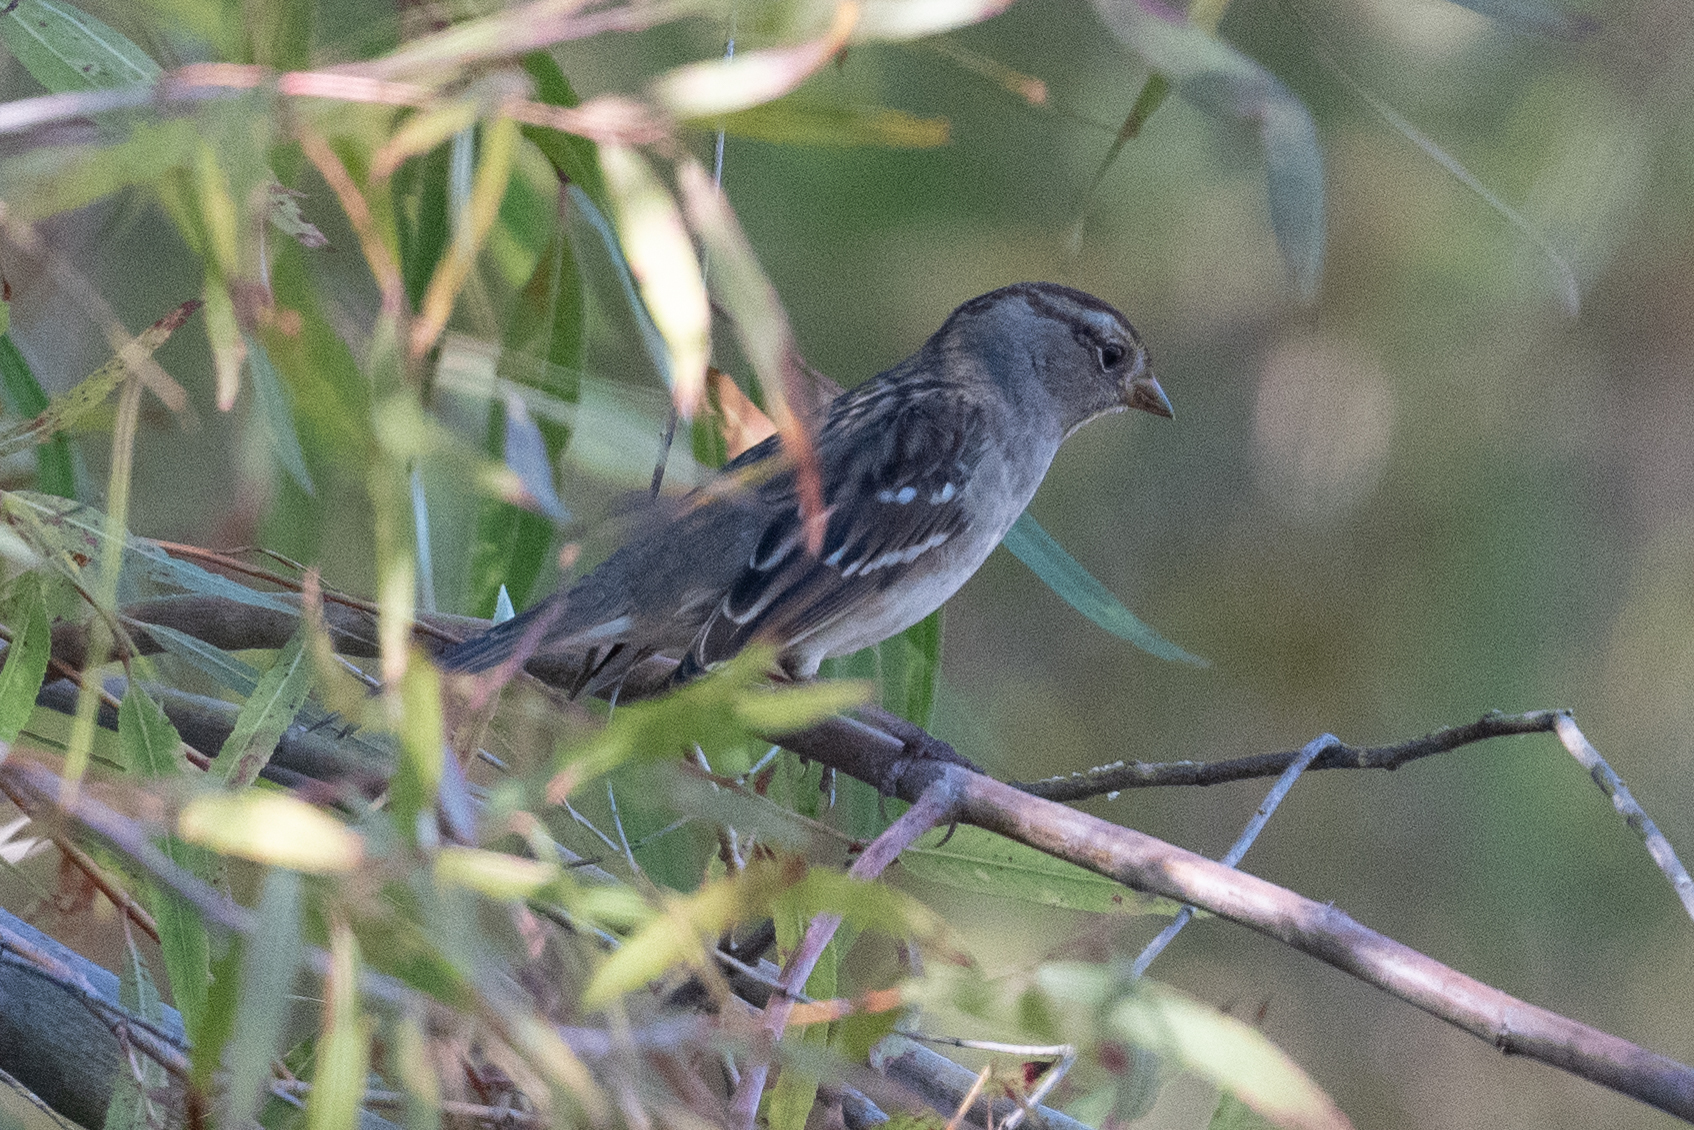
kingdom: Animalia
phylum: Chordata
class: Aves
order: Passeriformes
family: Passerellidae
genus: Zonotrichia
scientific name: Zonotrichia leucophrys
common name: White-crowned sparrow
